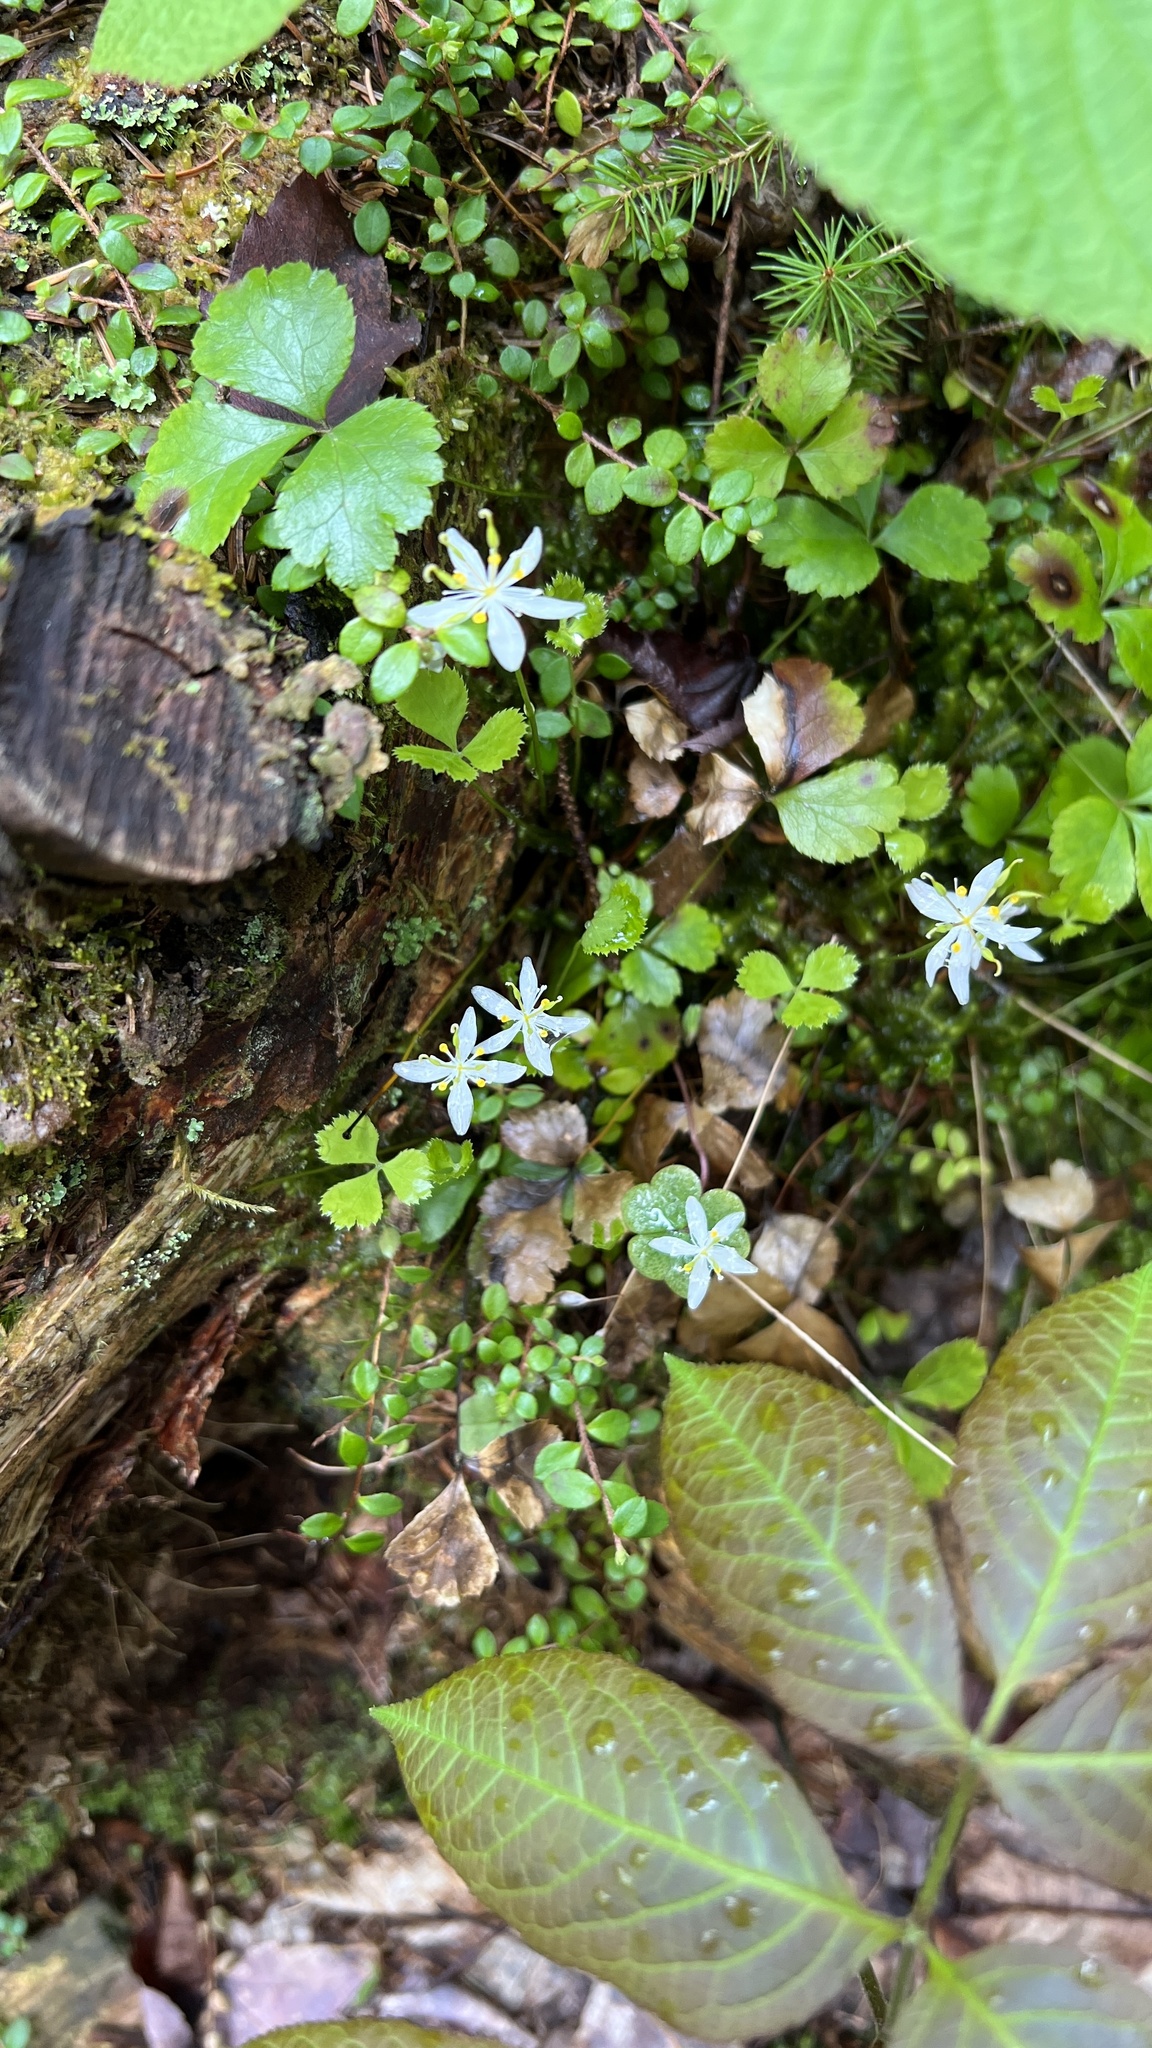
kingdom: Plantae
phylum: Tracheophyta
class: Magnoliopsida
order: Ranunculales
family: Ranunculaceae
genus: Coptis
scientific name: Coptis trifolia
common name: Canker-root
